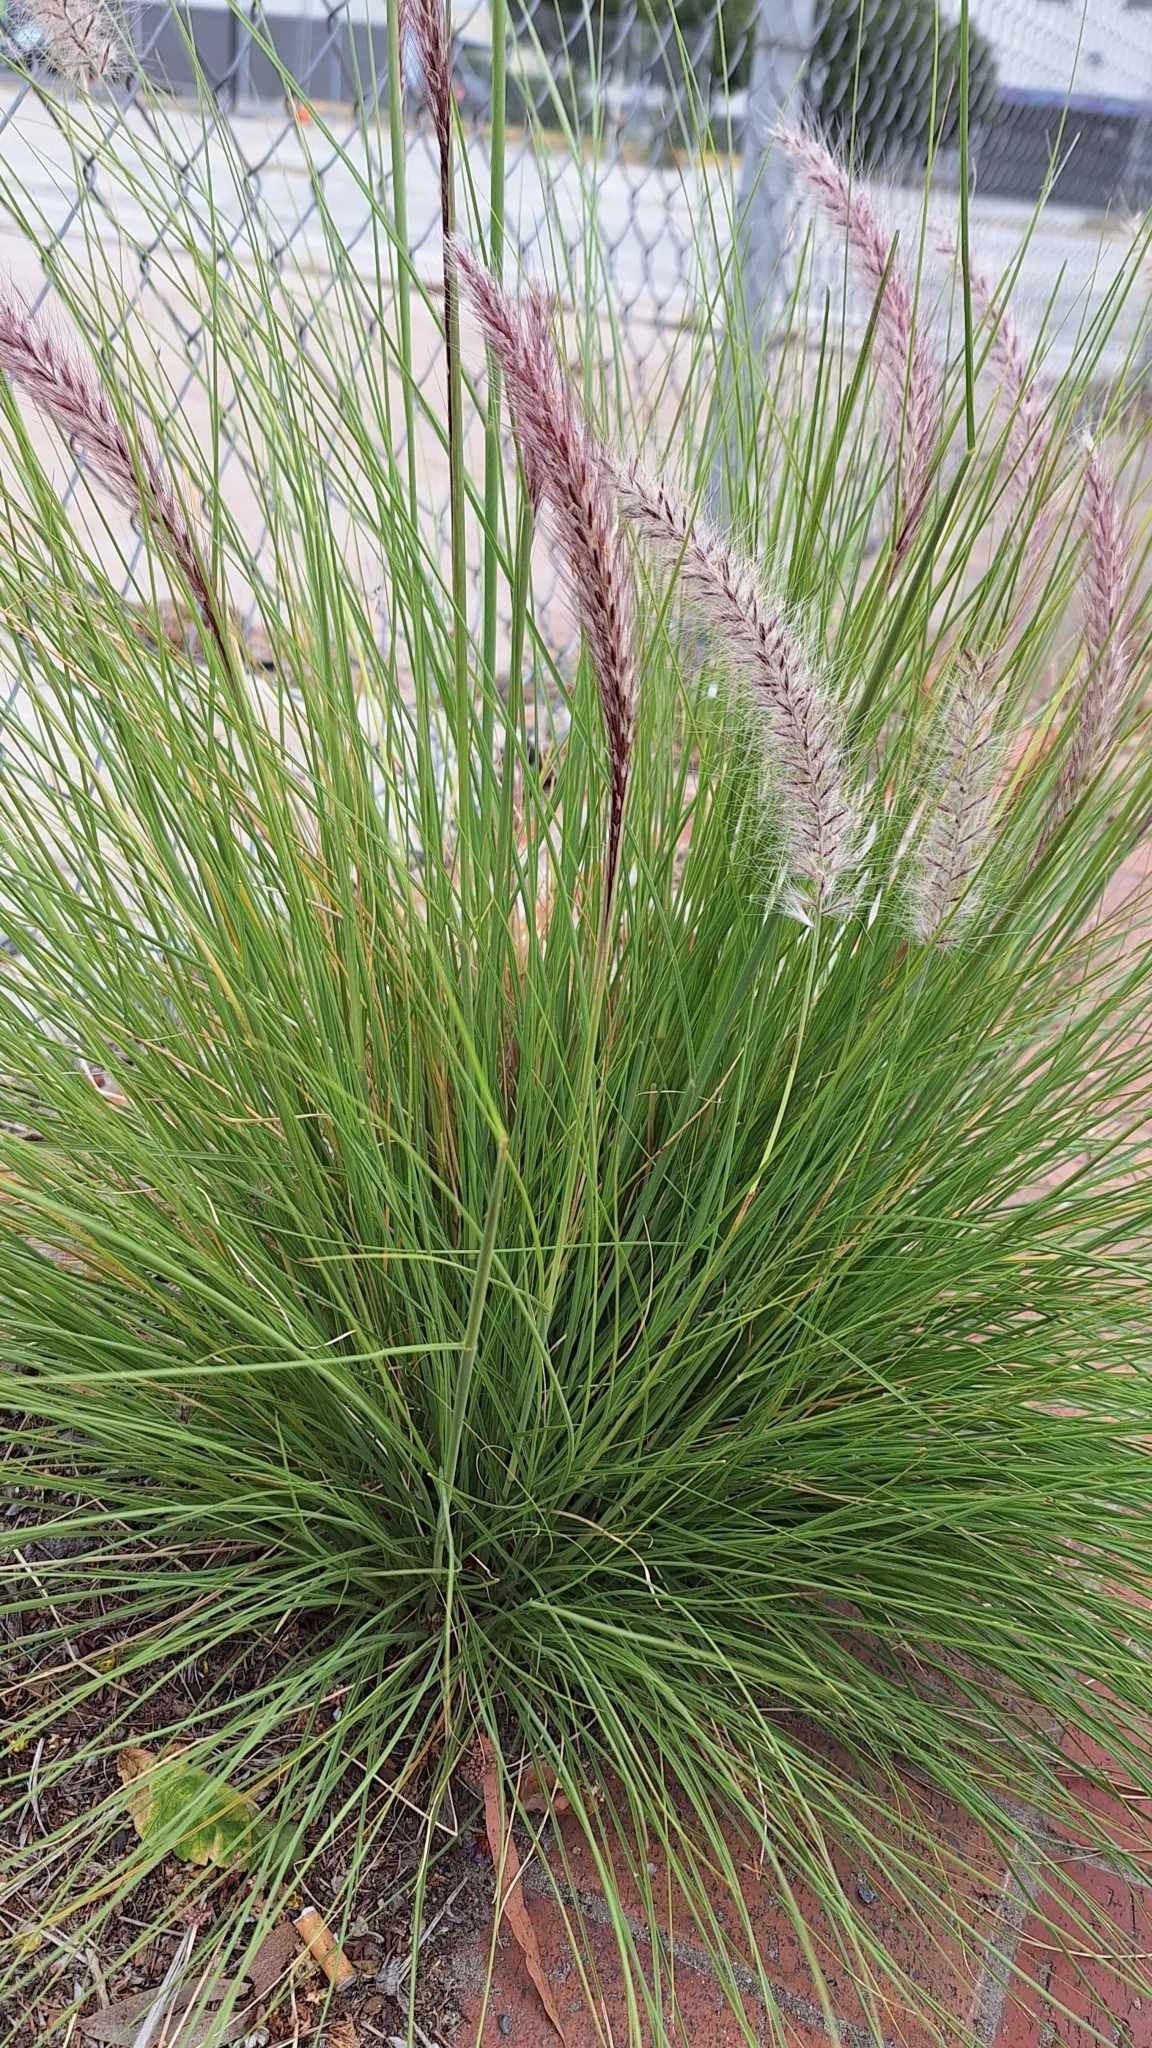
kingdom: Plantae
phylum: Tracheophyta
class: Liliopsida
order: Poales
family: Poaceae
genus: Cenchrus
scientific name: Cenchrus setaceus
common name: Crimson fountaingrass
